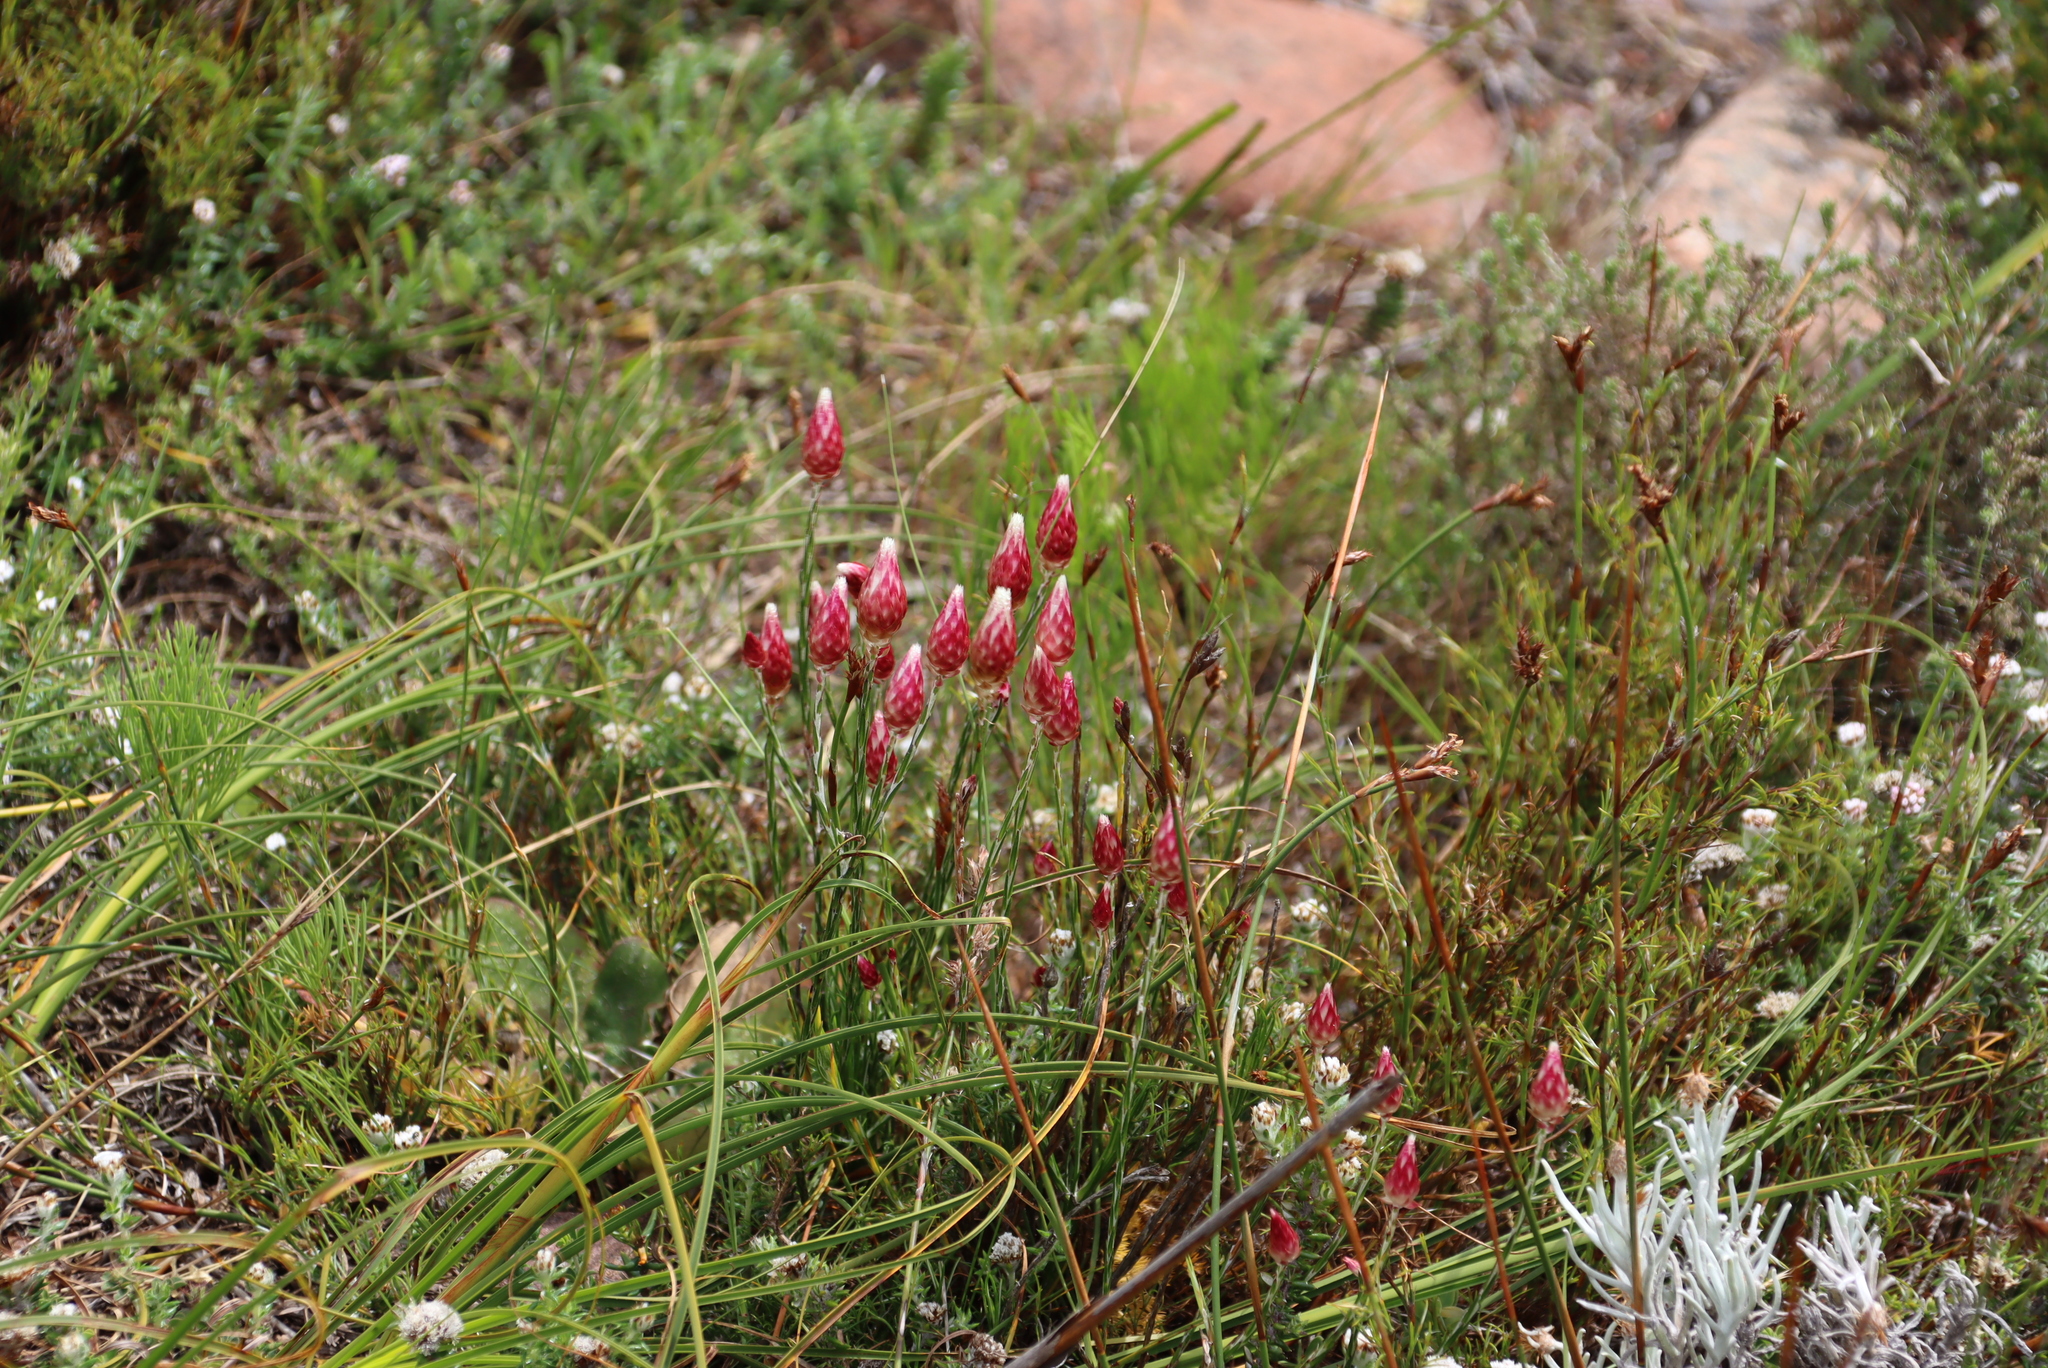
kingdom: Plantae
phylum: Tracheophyta
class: Magnoliopsida
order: Asterales
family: Asteraceae
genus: Edmondia
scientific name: Edmondia sesamoides
